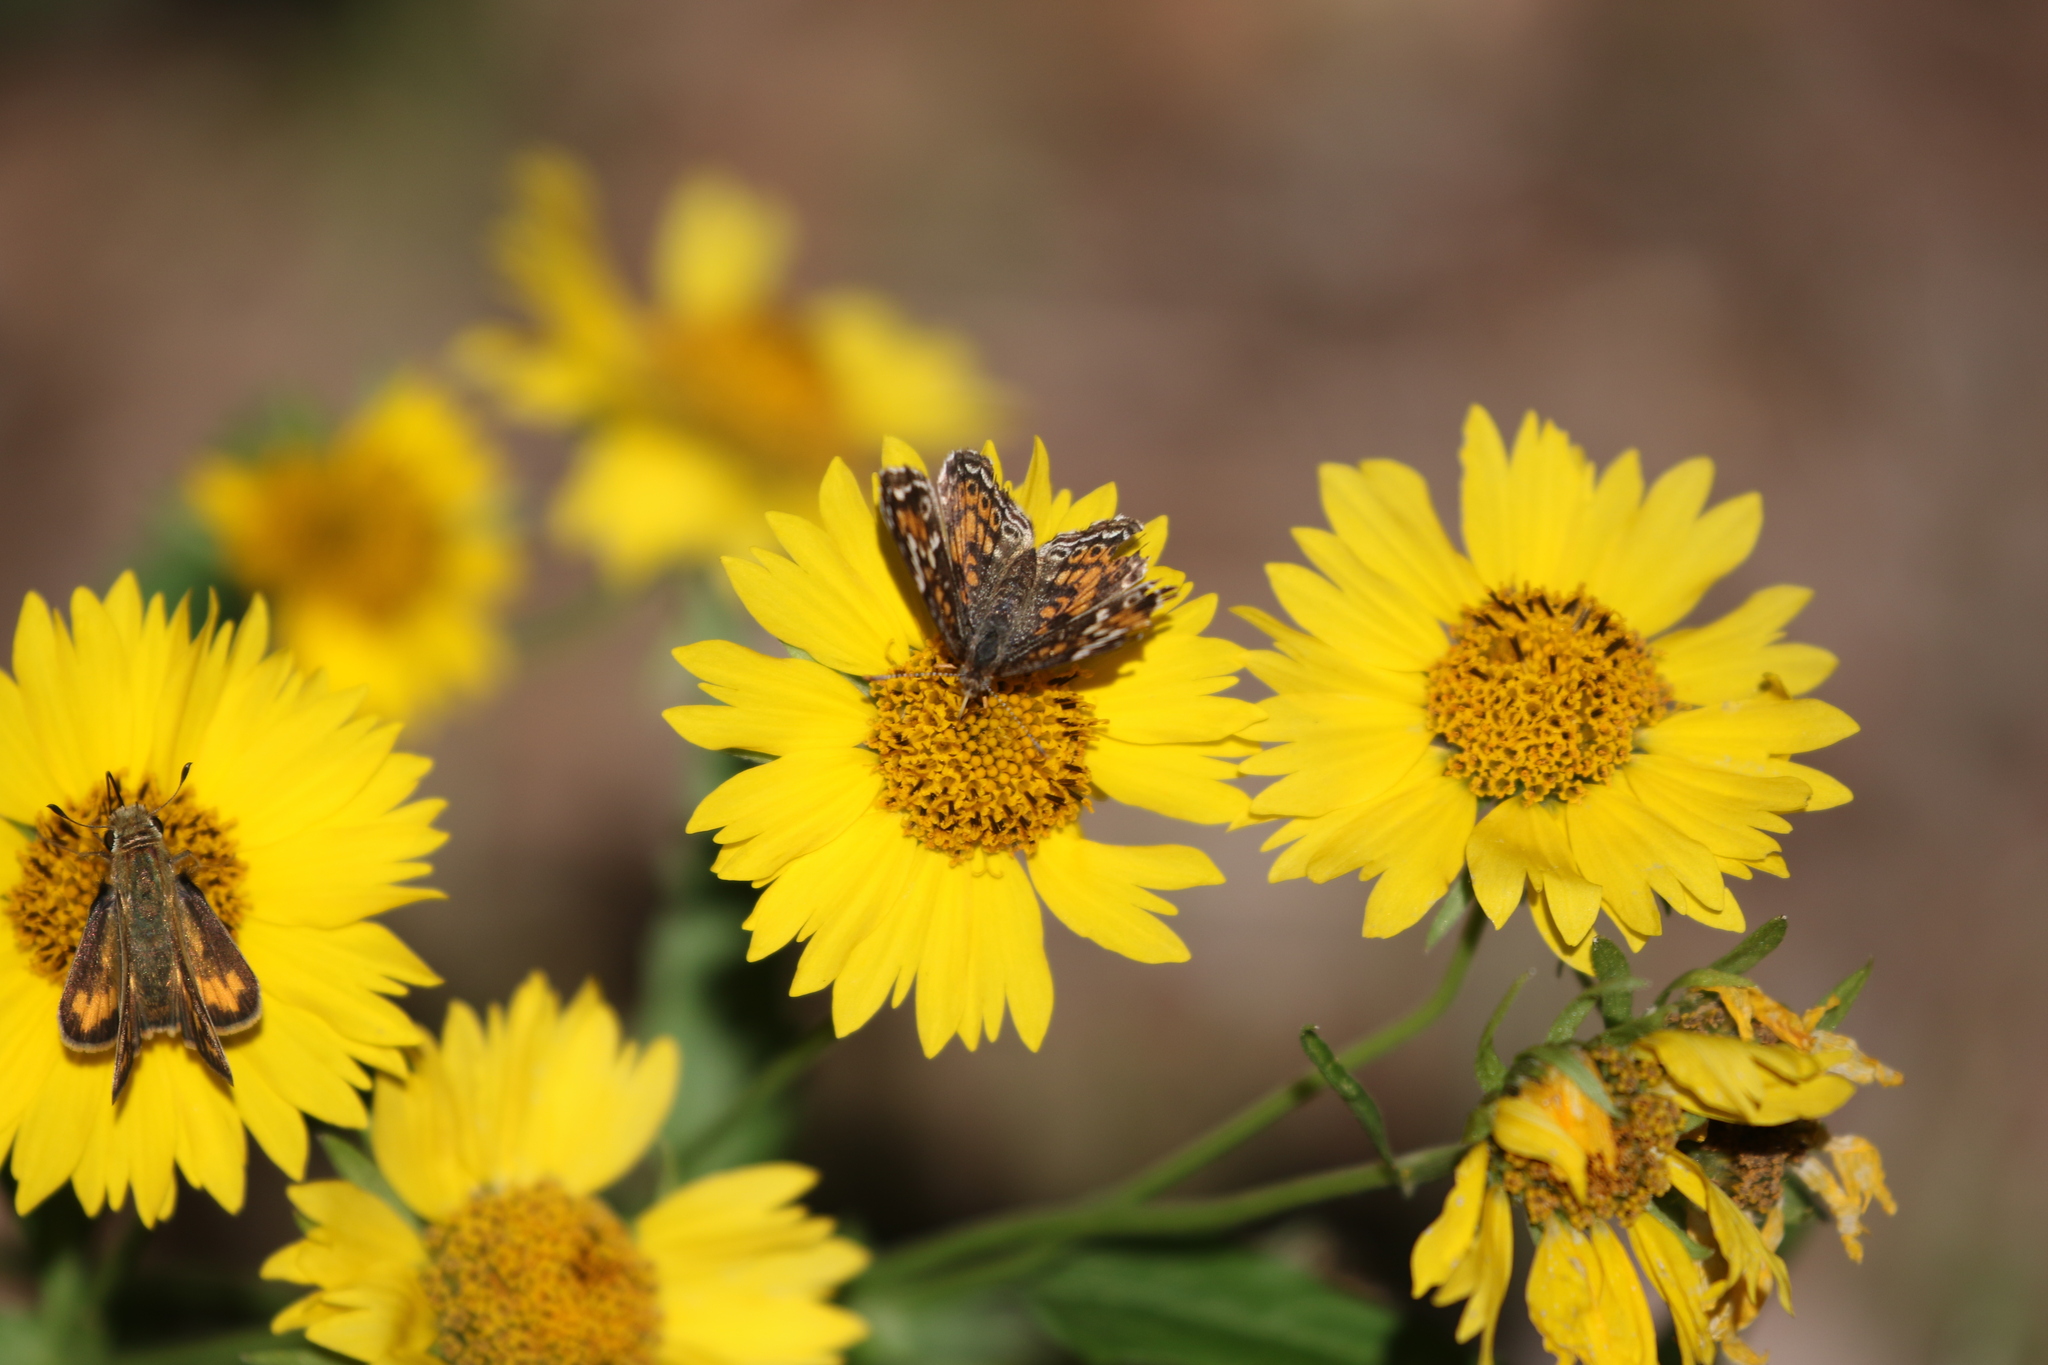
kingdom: Animalia
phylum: Arthropoda
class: Insecta
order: Lepidoptera
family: Nymphalidae
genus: Phyciodes
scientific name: Phyciodes phaon
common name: Phaon crescent
